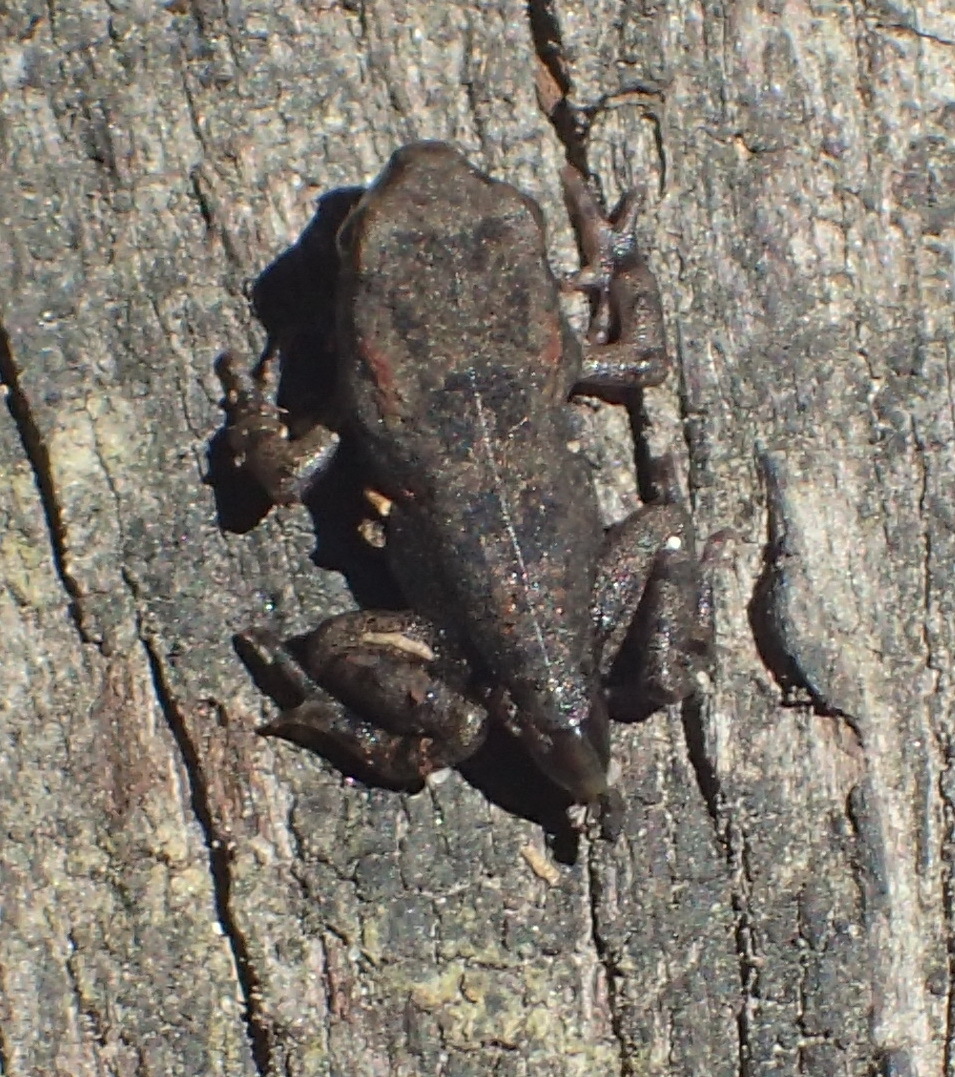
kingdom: Animalia
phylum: Chordata
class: Amphibia
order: Anura
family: Bufonidae
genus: Sclerophrys
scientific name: Sclerophrys capensis
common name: Ranger’s toad
